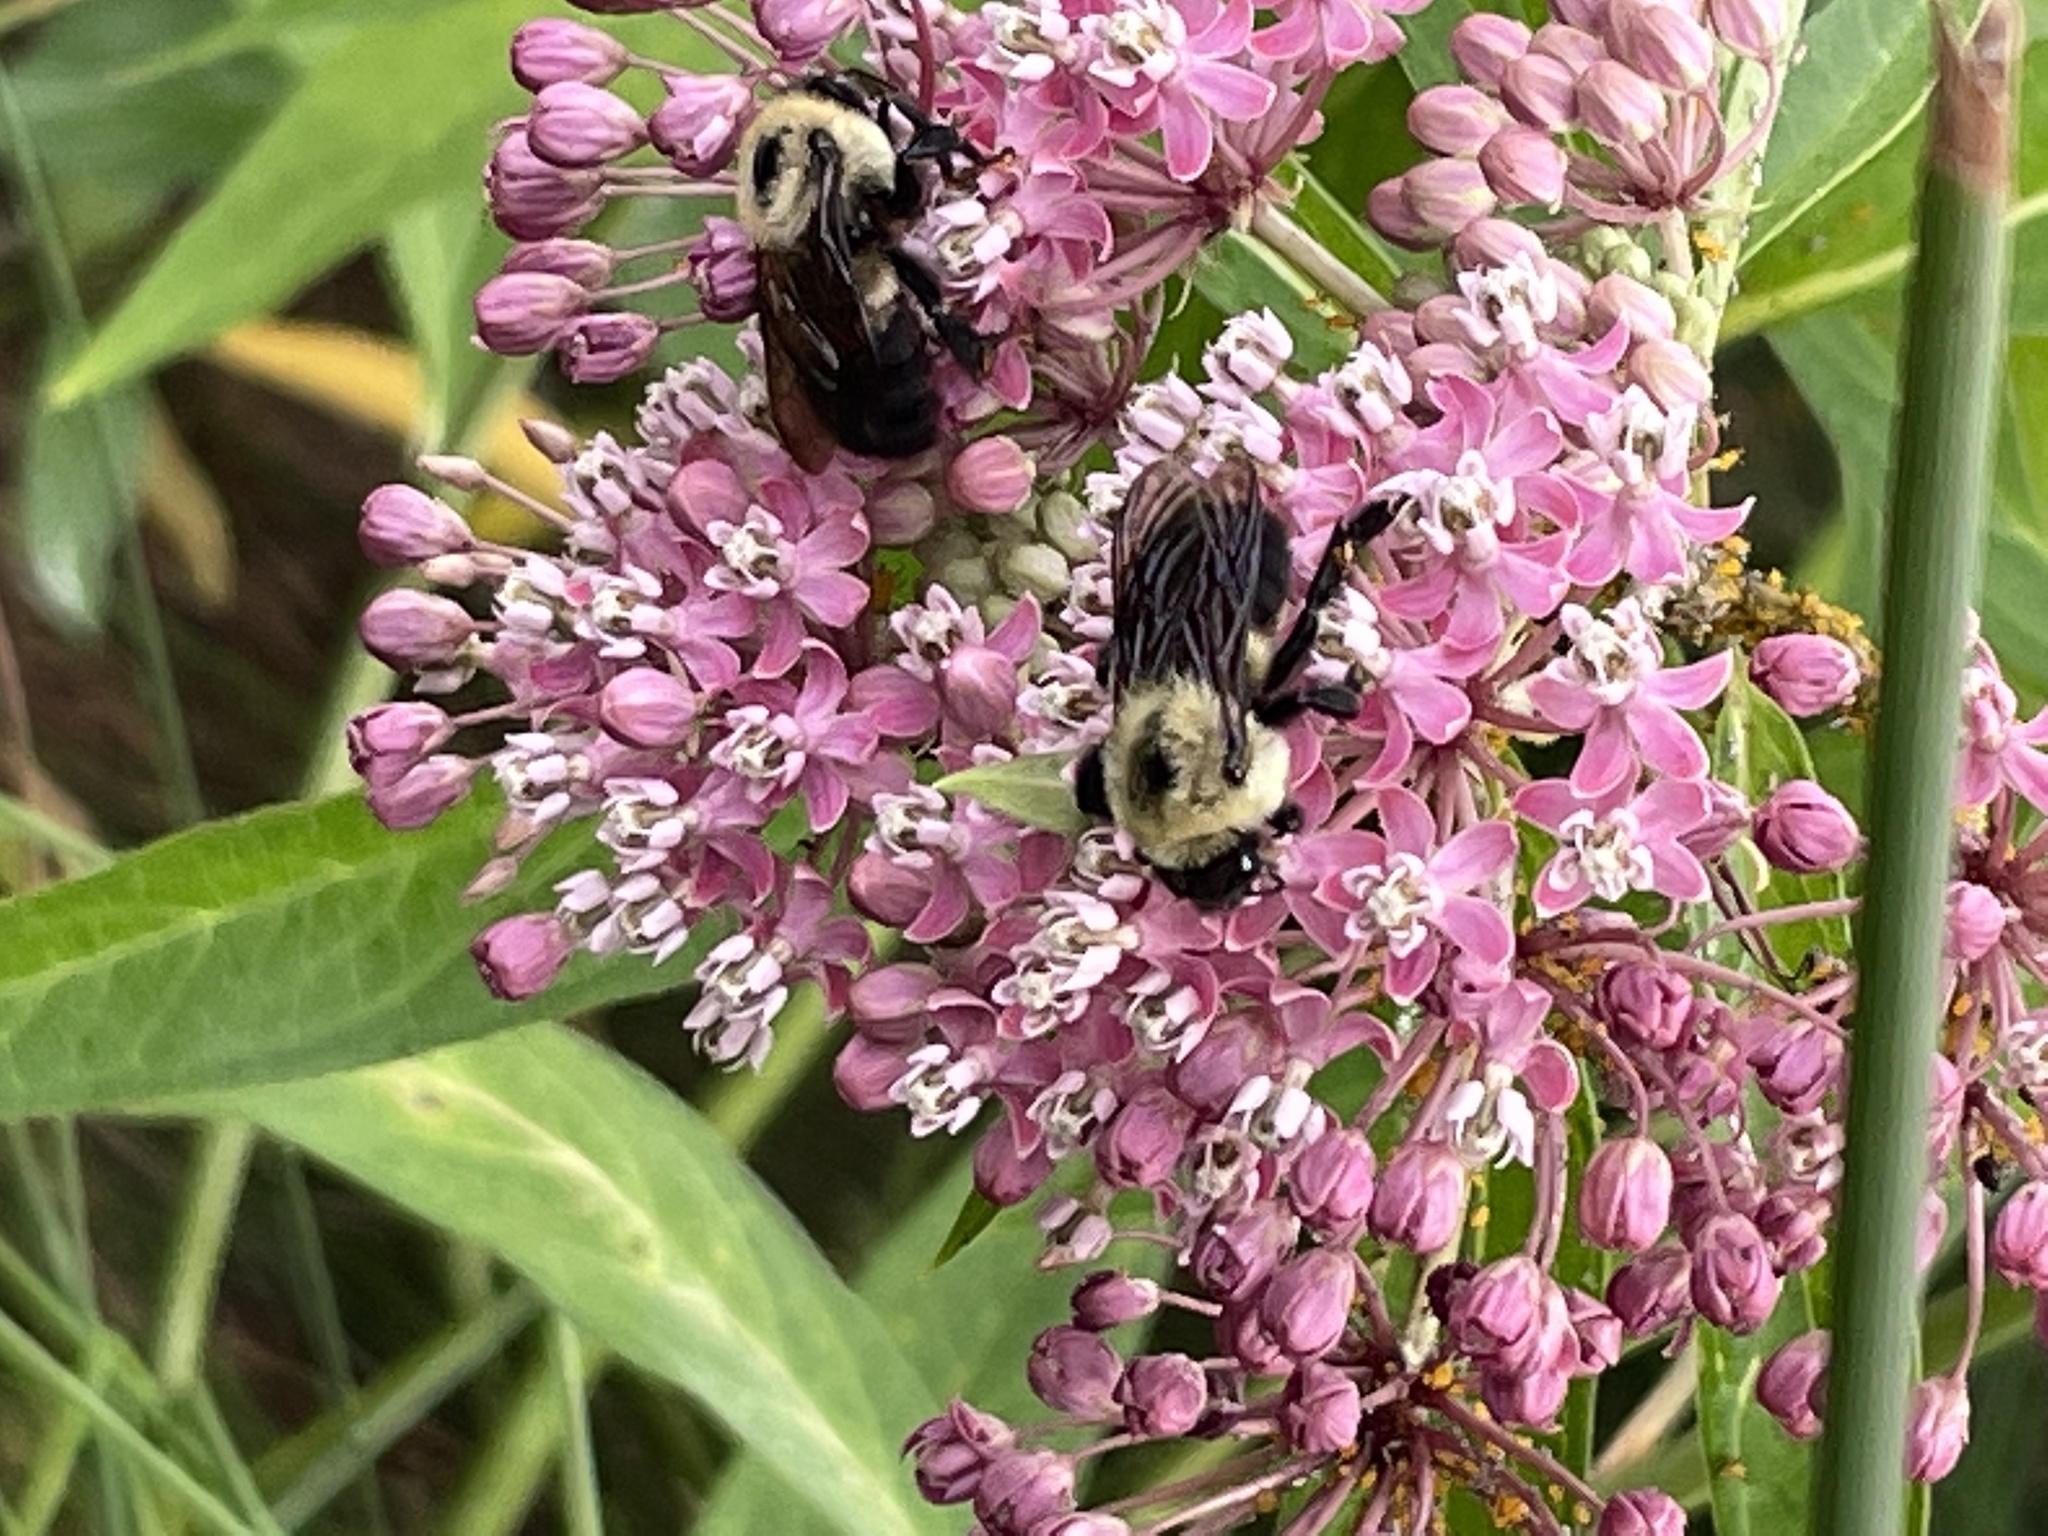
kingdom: Animalia
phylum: Arthropoda
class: Insecta
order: Hymenoptera
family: Apidae
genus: Bombus
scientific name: Bombus griseocollis
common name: Brown-belted bumble bee
